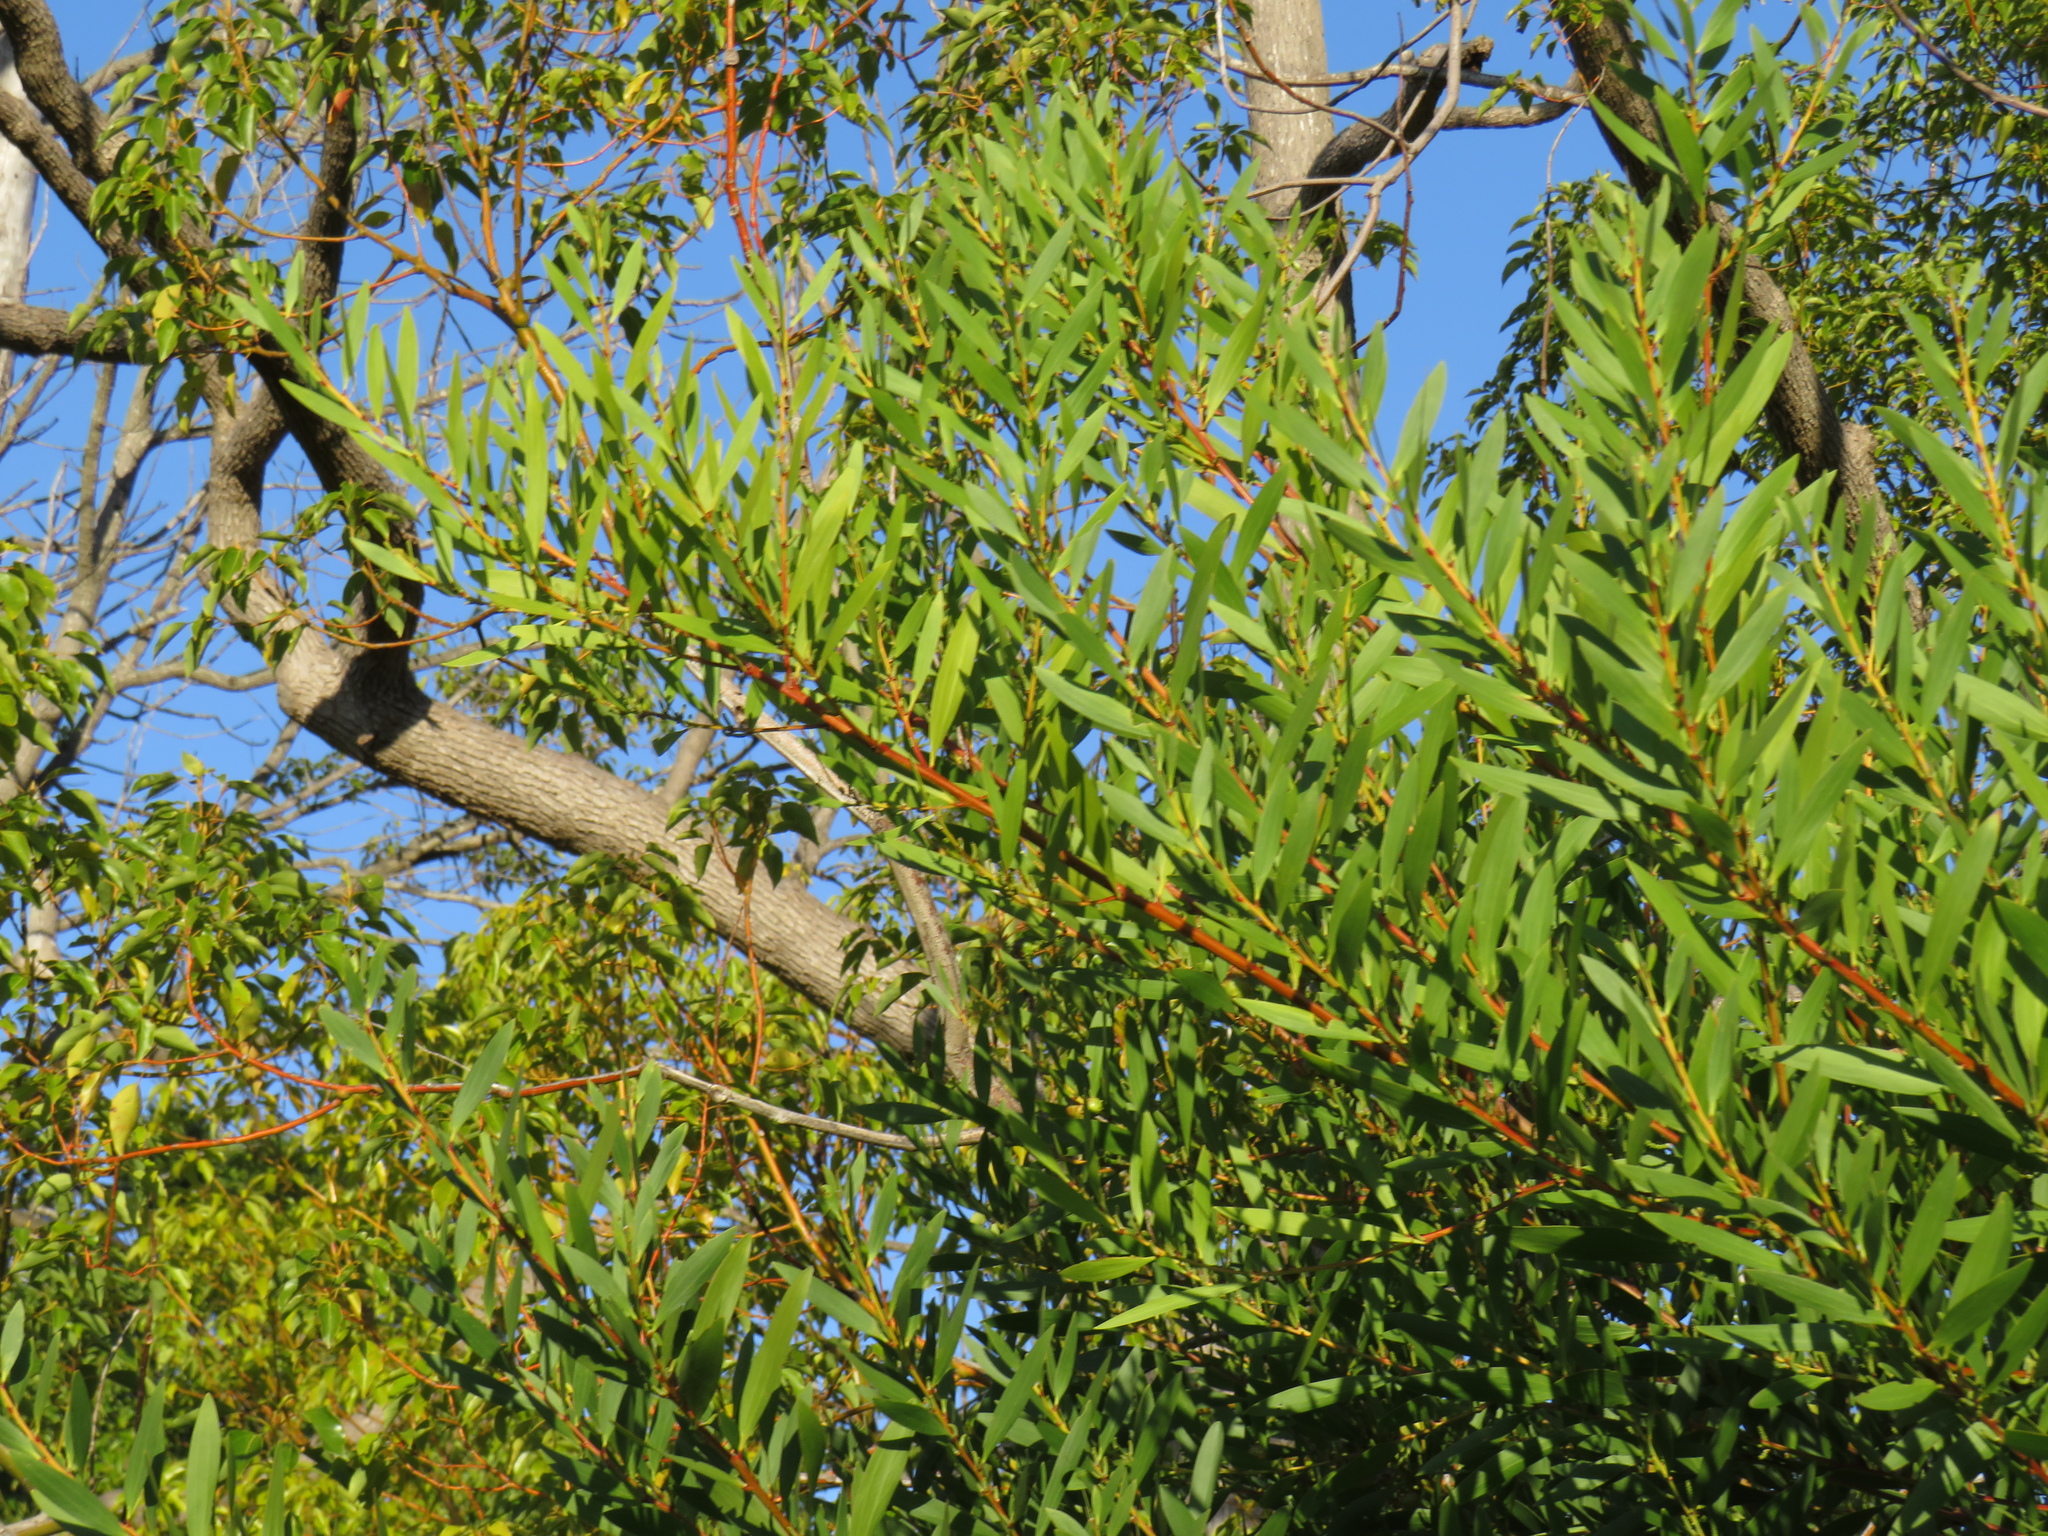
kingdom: Plantae
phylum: Tracheophyta
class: Magnoliopsida
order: Fabales
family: Fabaceae
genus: Acacia
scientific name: Acacia longifolia
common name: Sydney golden wattle
